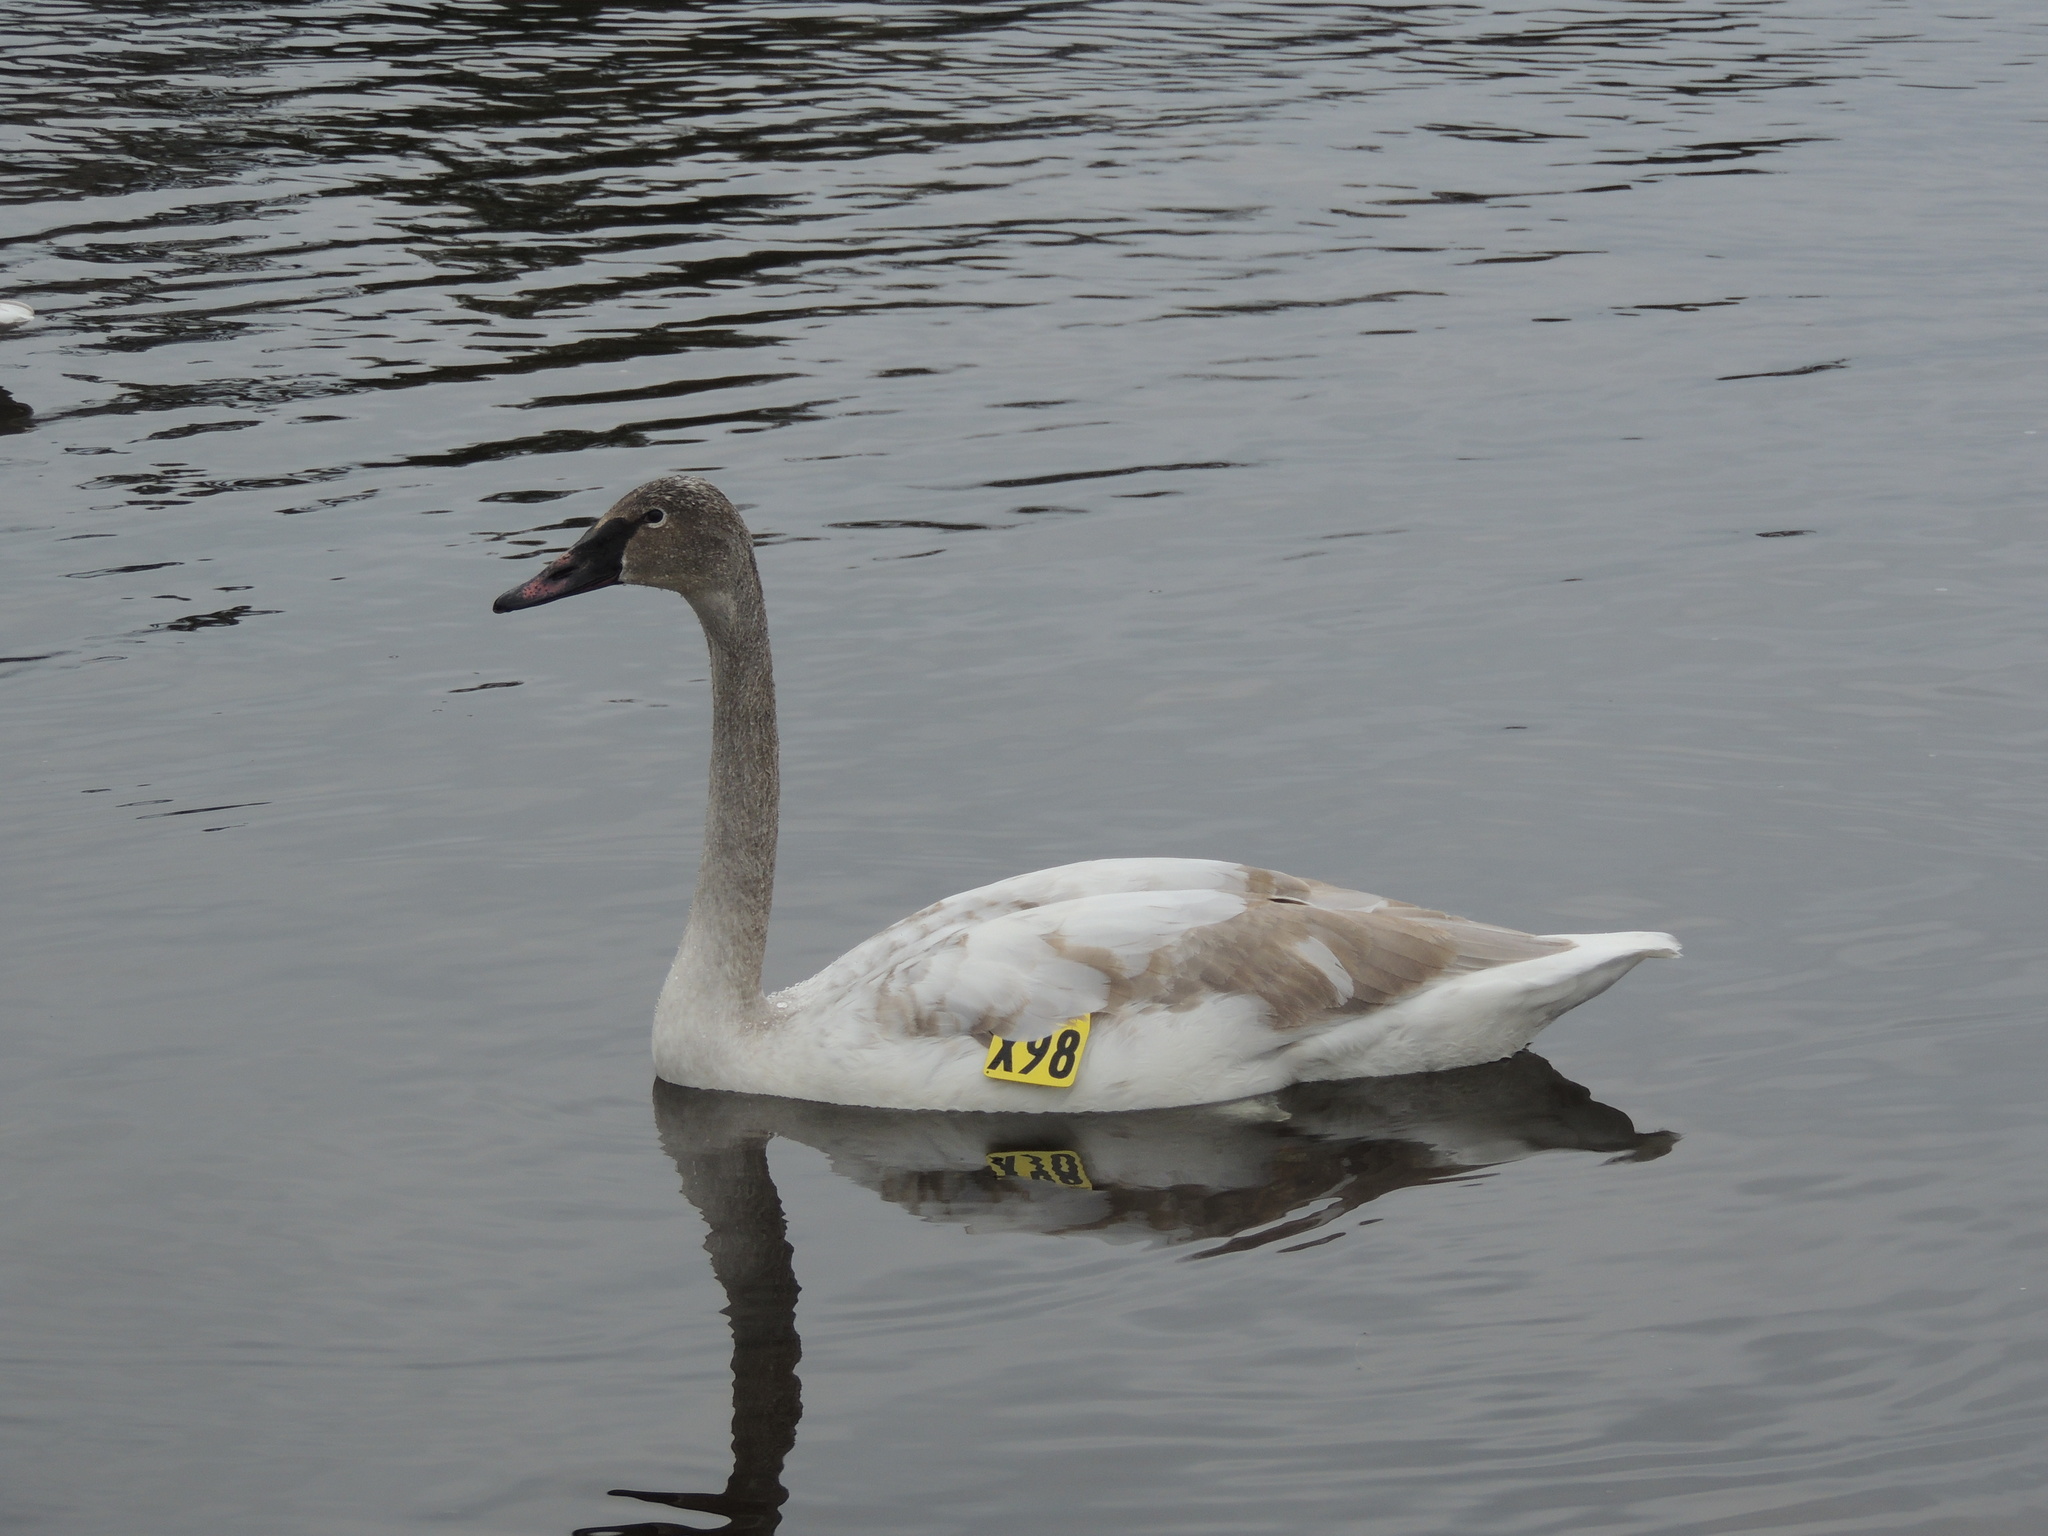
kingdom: Animalia
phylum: Chordata
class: Aves
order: Anseriformes
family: Anatidae
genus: Cygnus
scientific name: Cygnus buccinator
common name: Trumpeter swan
